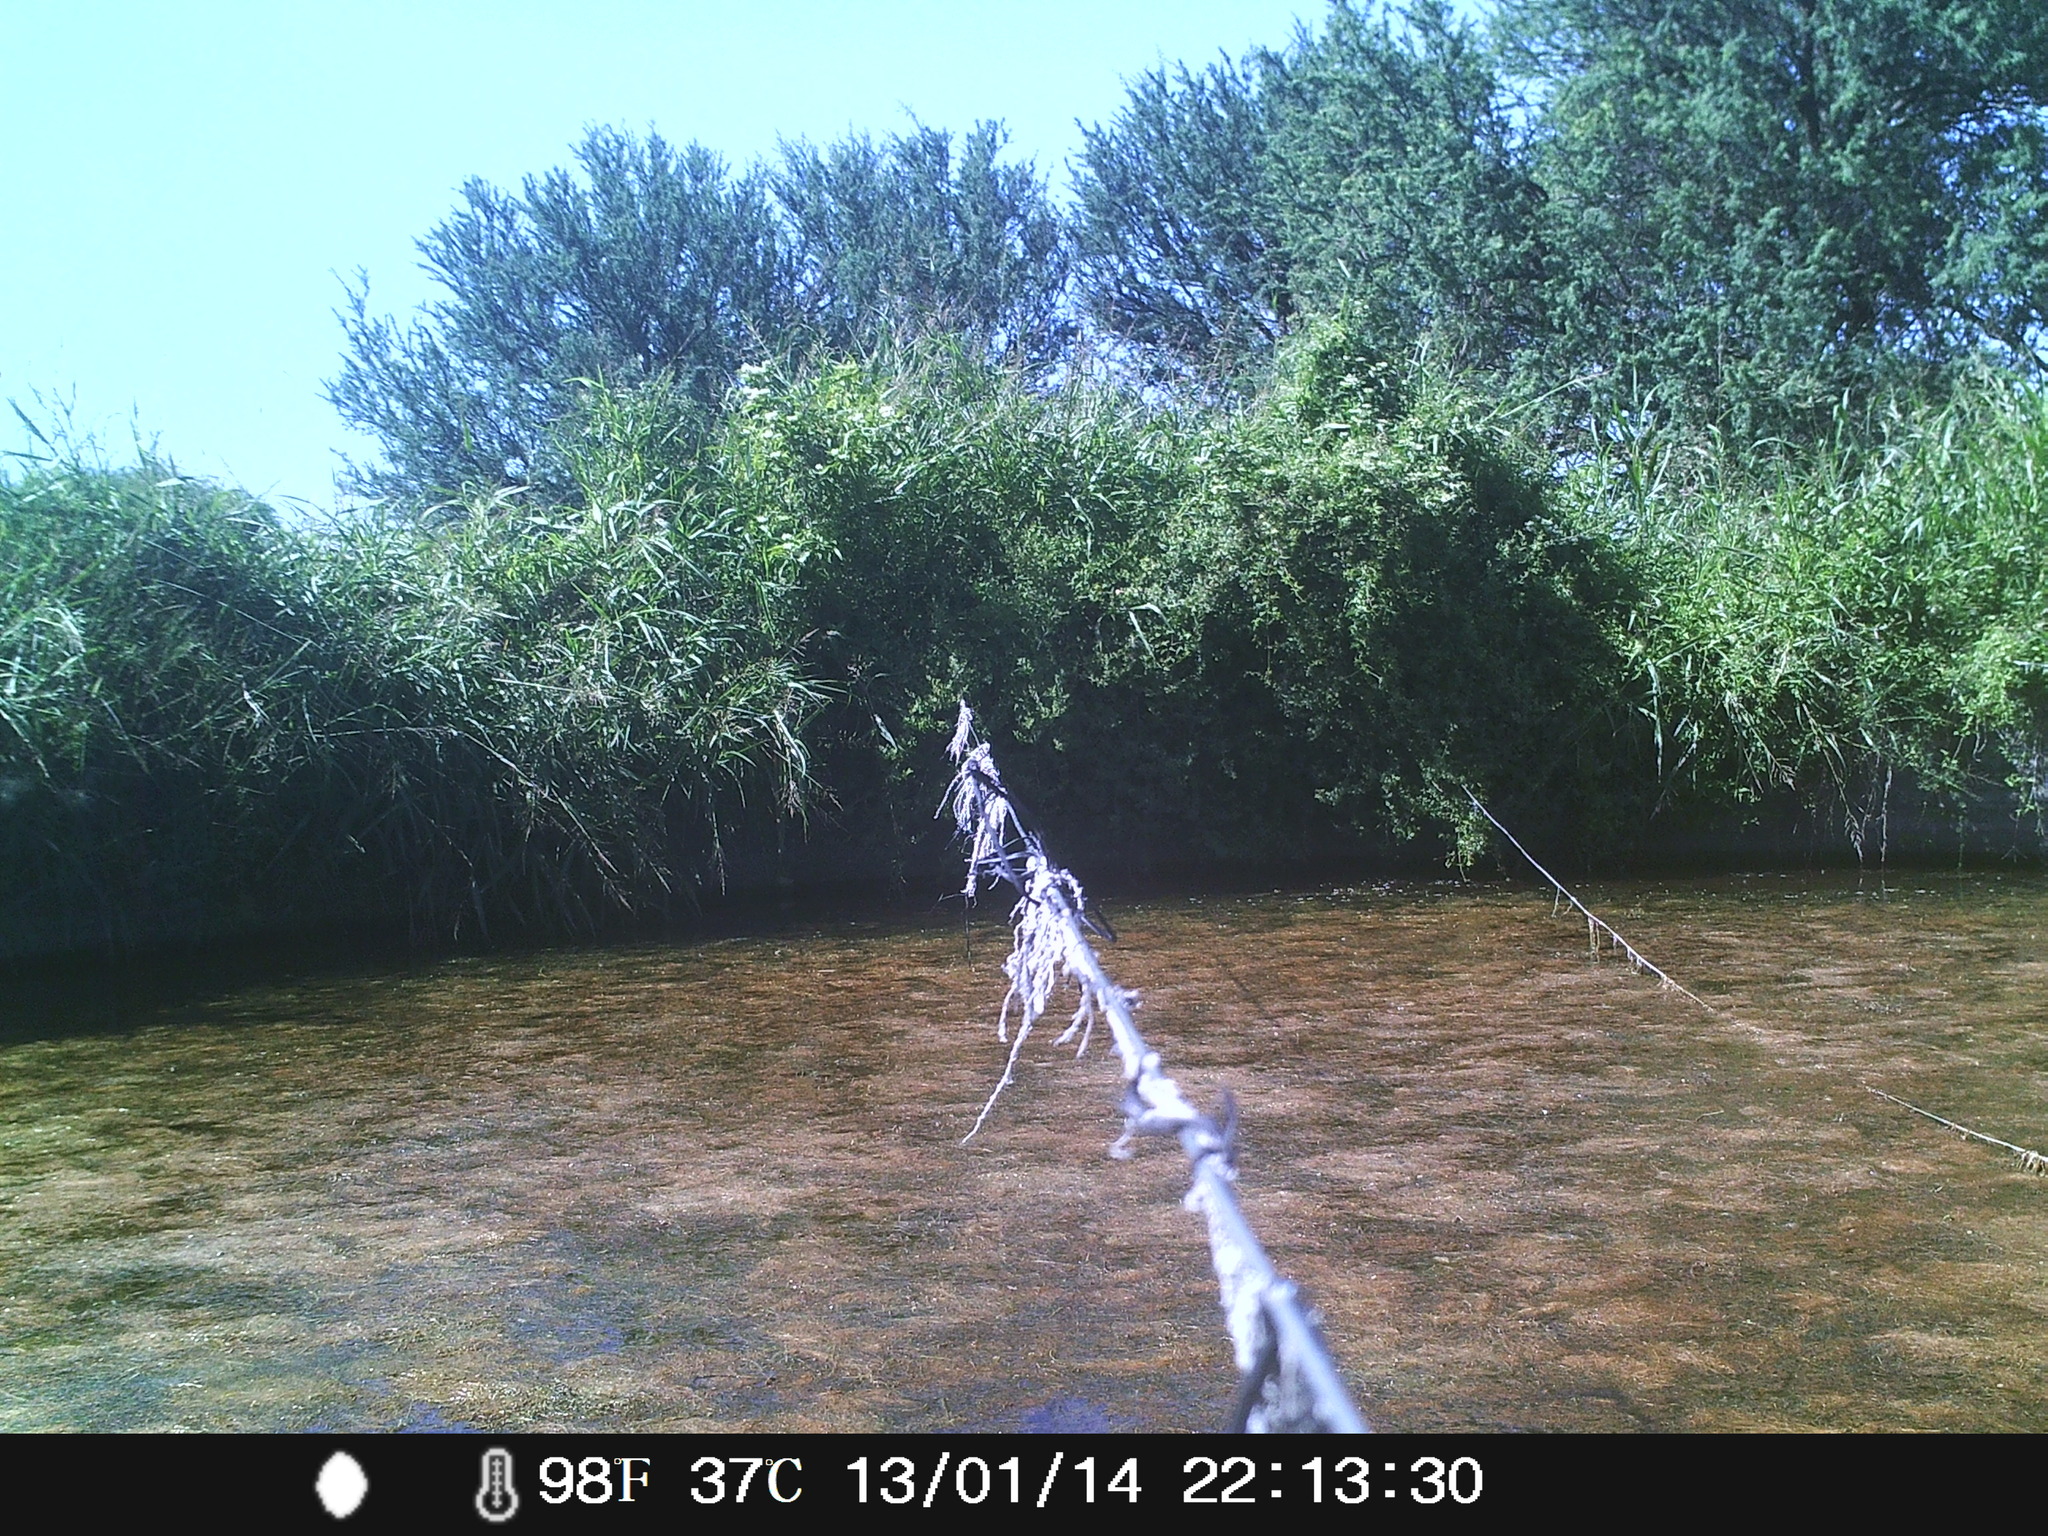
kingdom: Animalia
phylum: Chordata
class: Aves
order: Pelecaniformes
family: Ardeidae
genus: Butorides
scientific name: Butorides striata
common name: Striated heron
